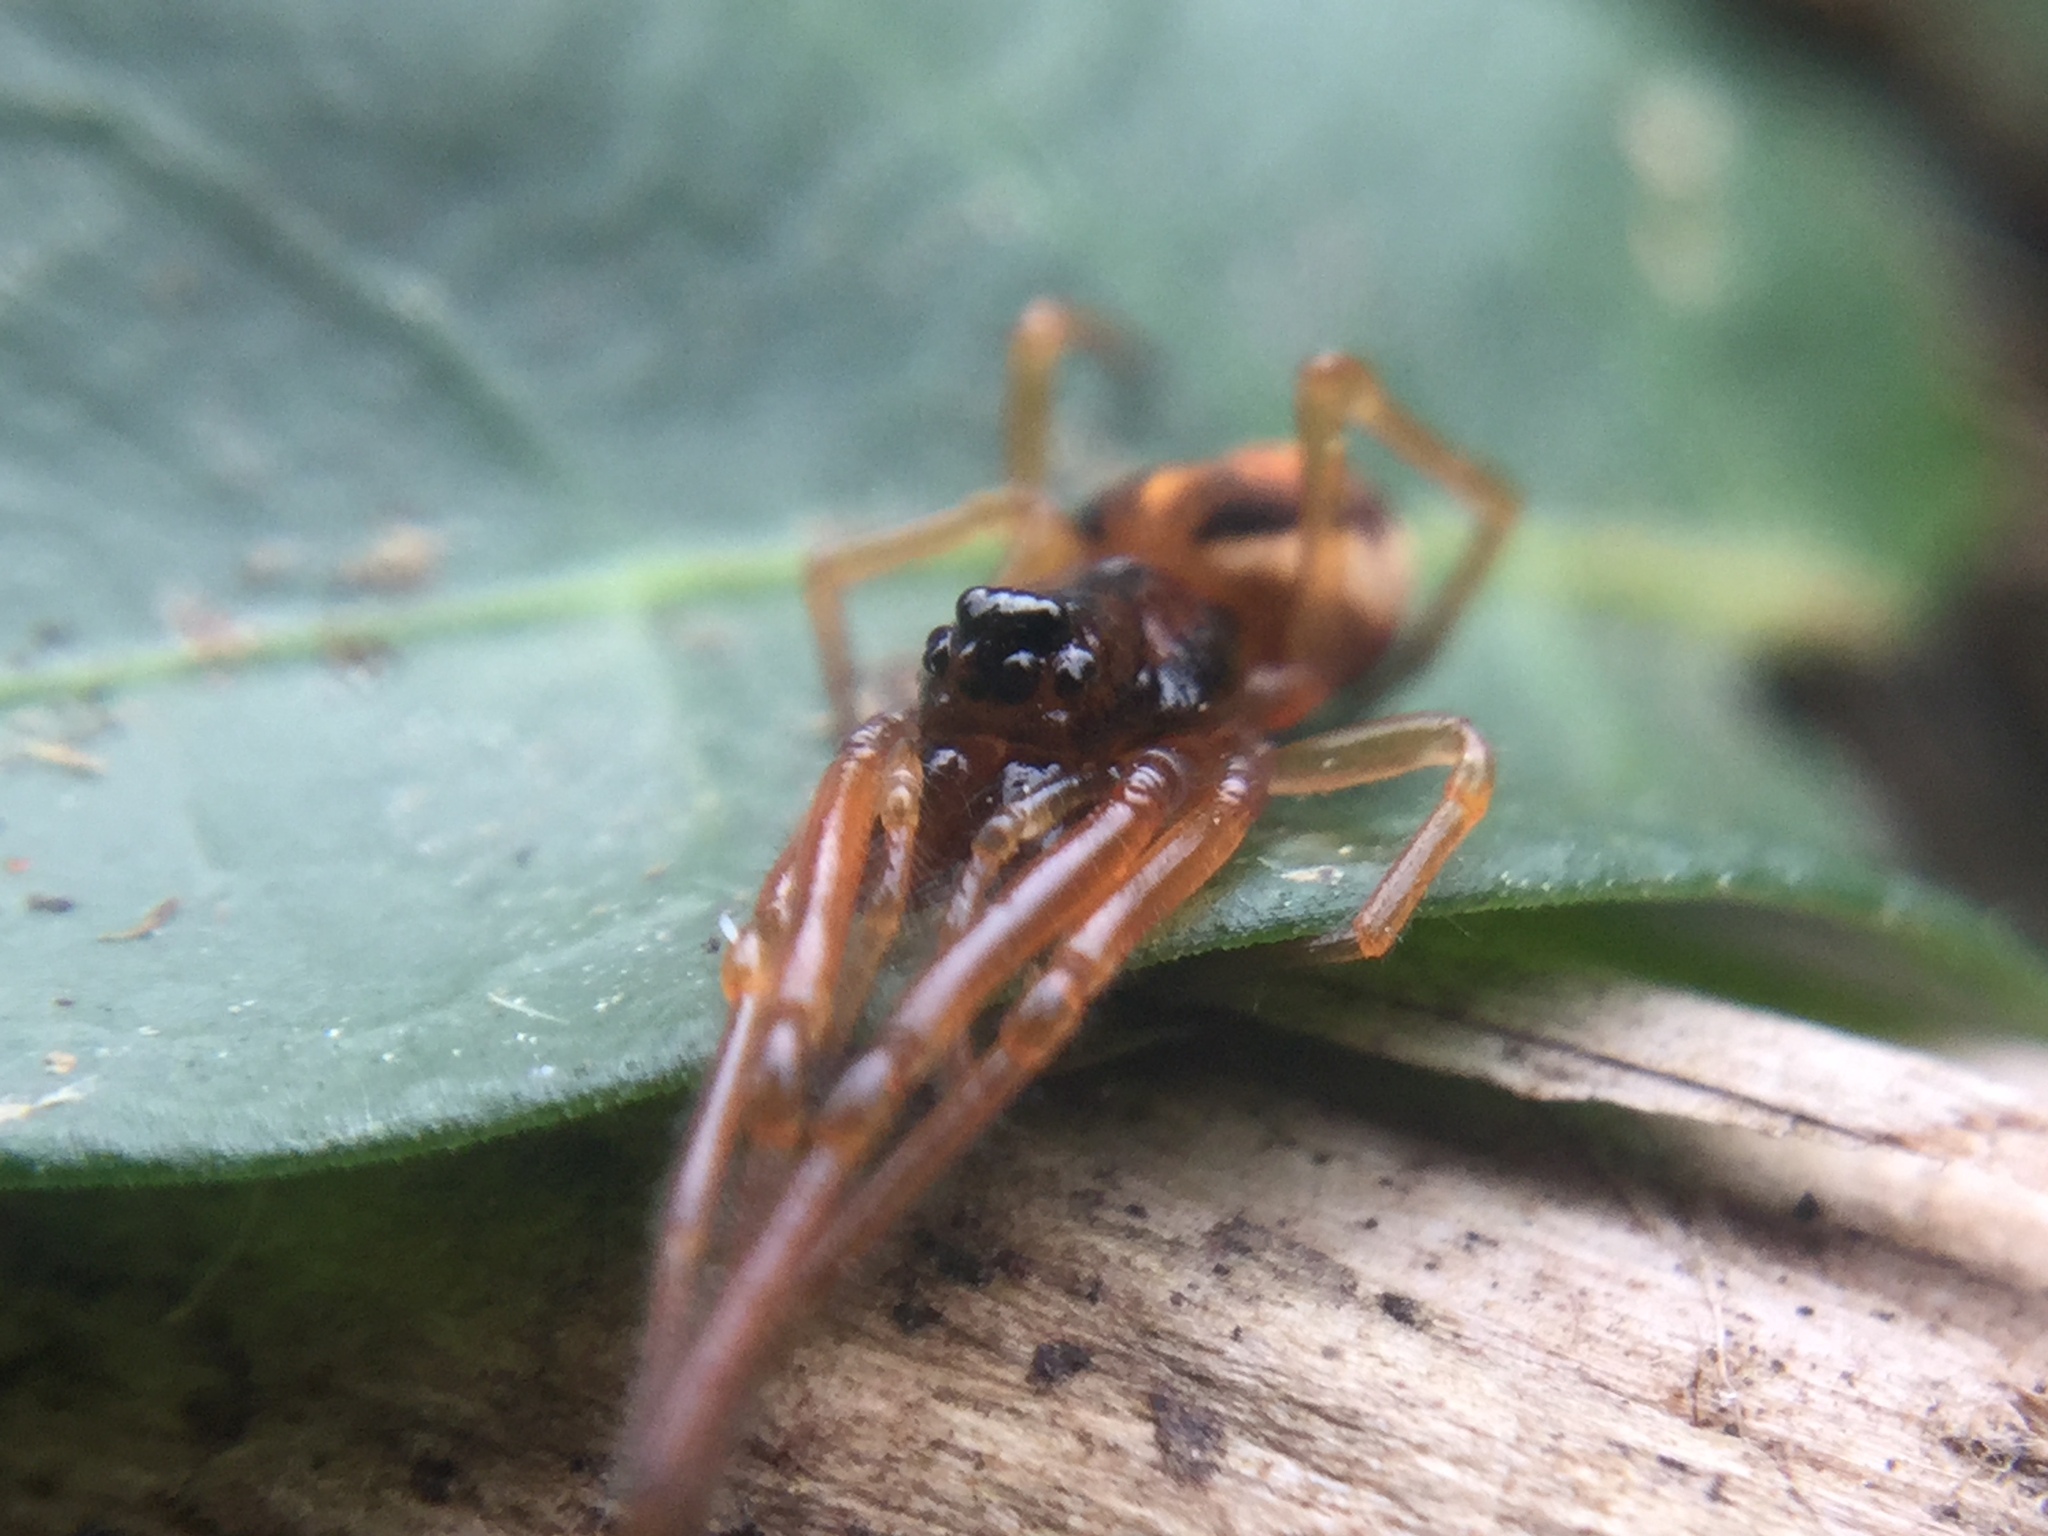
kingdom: Animalia
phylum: Arthropoda
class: Arachnida
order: Araneae
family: Tetragnathidae
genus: Pachygnatha
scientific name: Pachygnatha autumnalis
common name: Big-eyed thick-jawed spider
